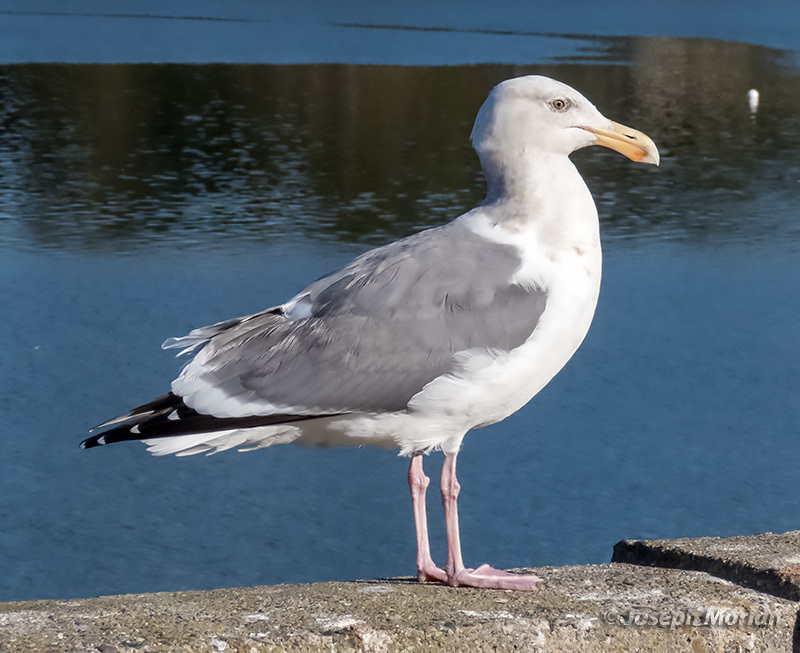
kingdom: Animalia
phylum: Chordata
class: Aves
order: Charadriiformes
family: Laridae
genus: Larus
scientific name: Larus occidentalis
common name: Western gull
